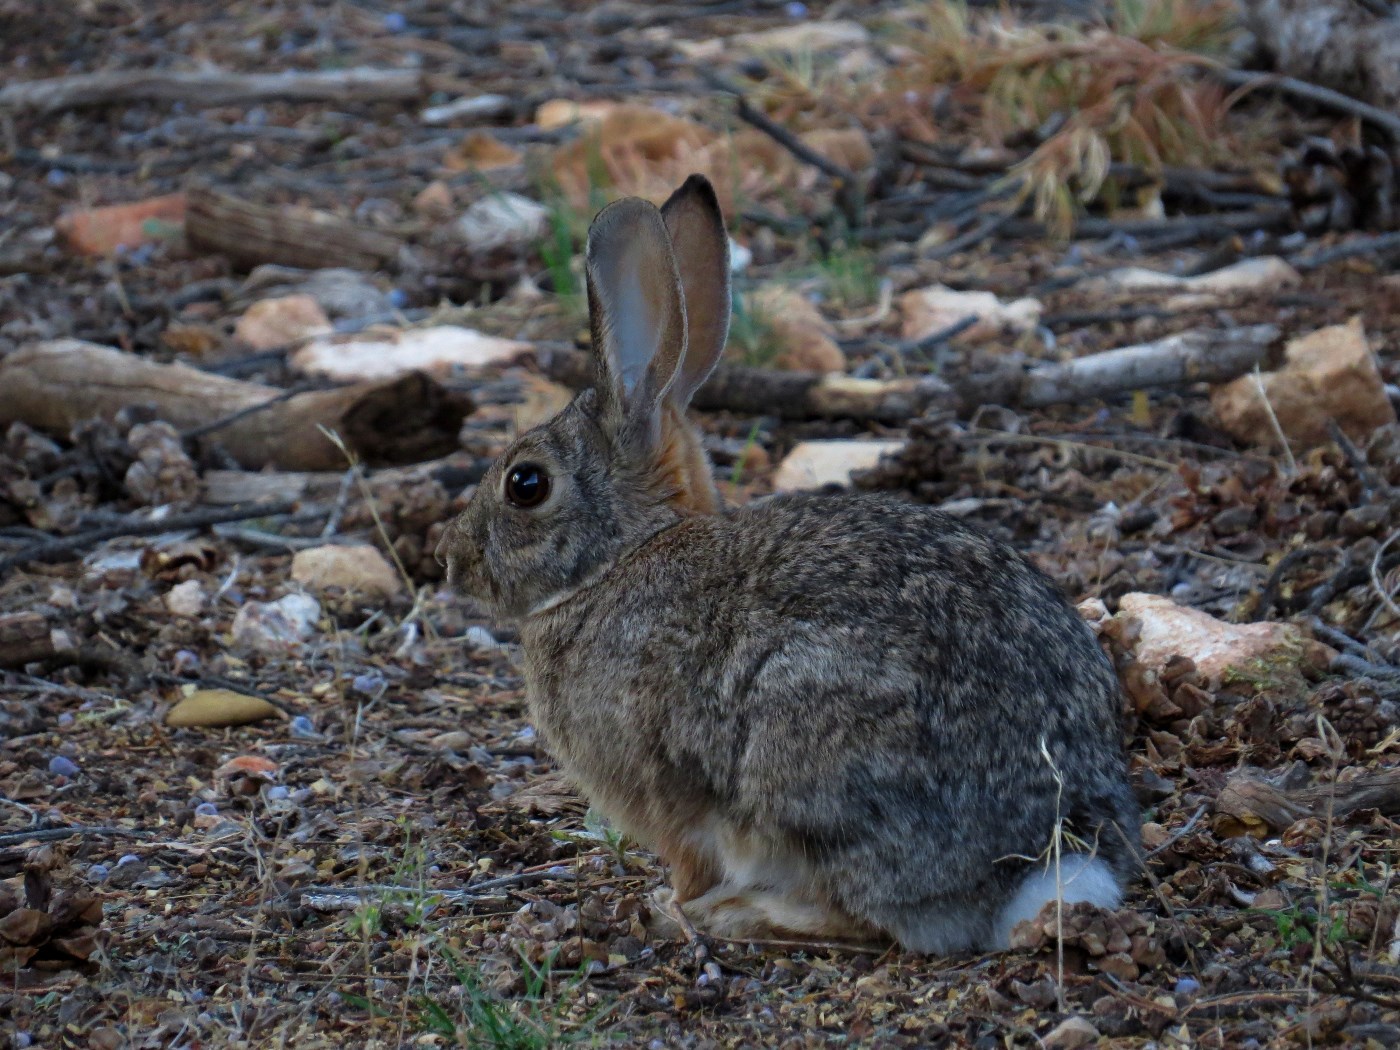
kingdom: Animalia
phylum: Chordata
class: Mammalia
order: Lagomorpha
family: Leporidae
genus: Sylvilagus
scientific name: Sylvilagus audubonii
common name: Desert cottontail
